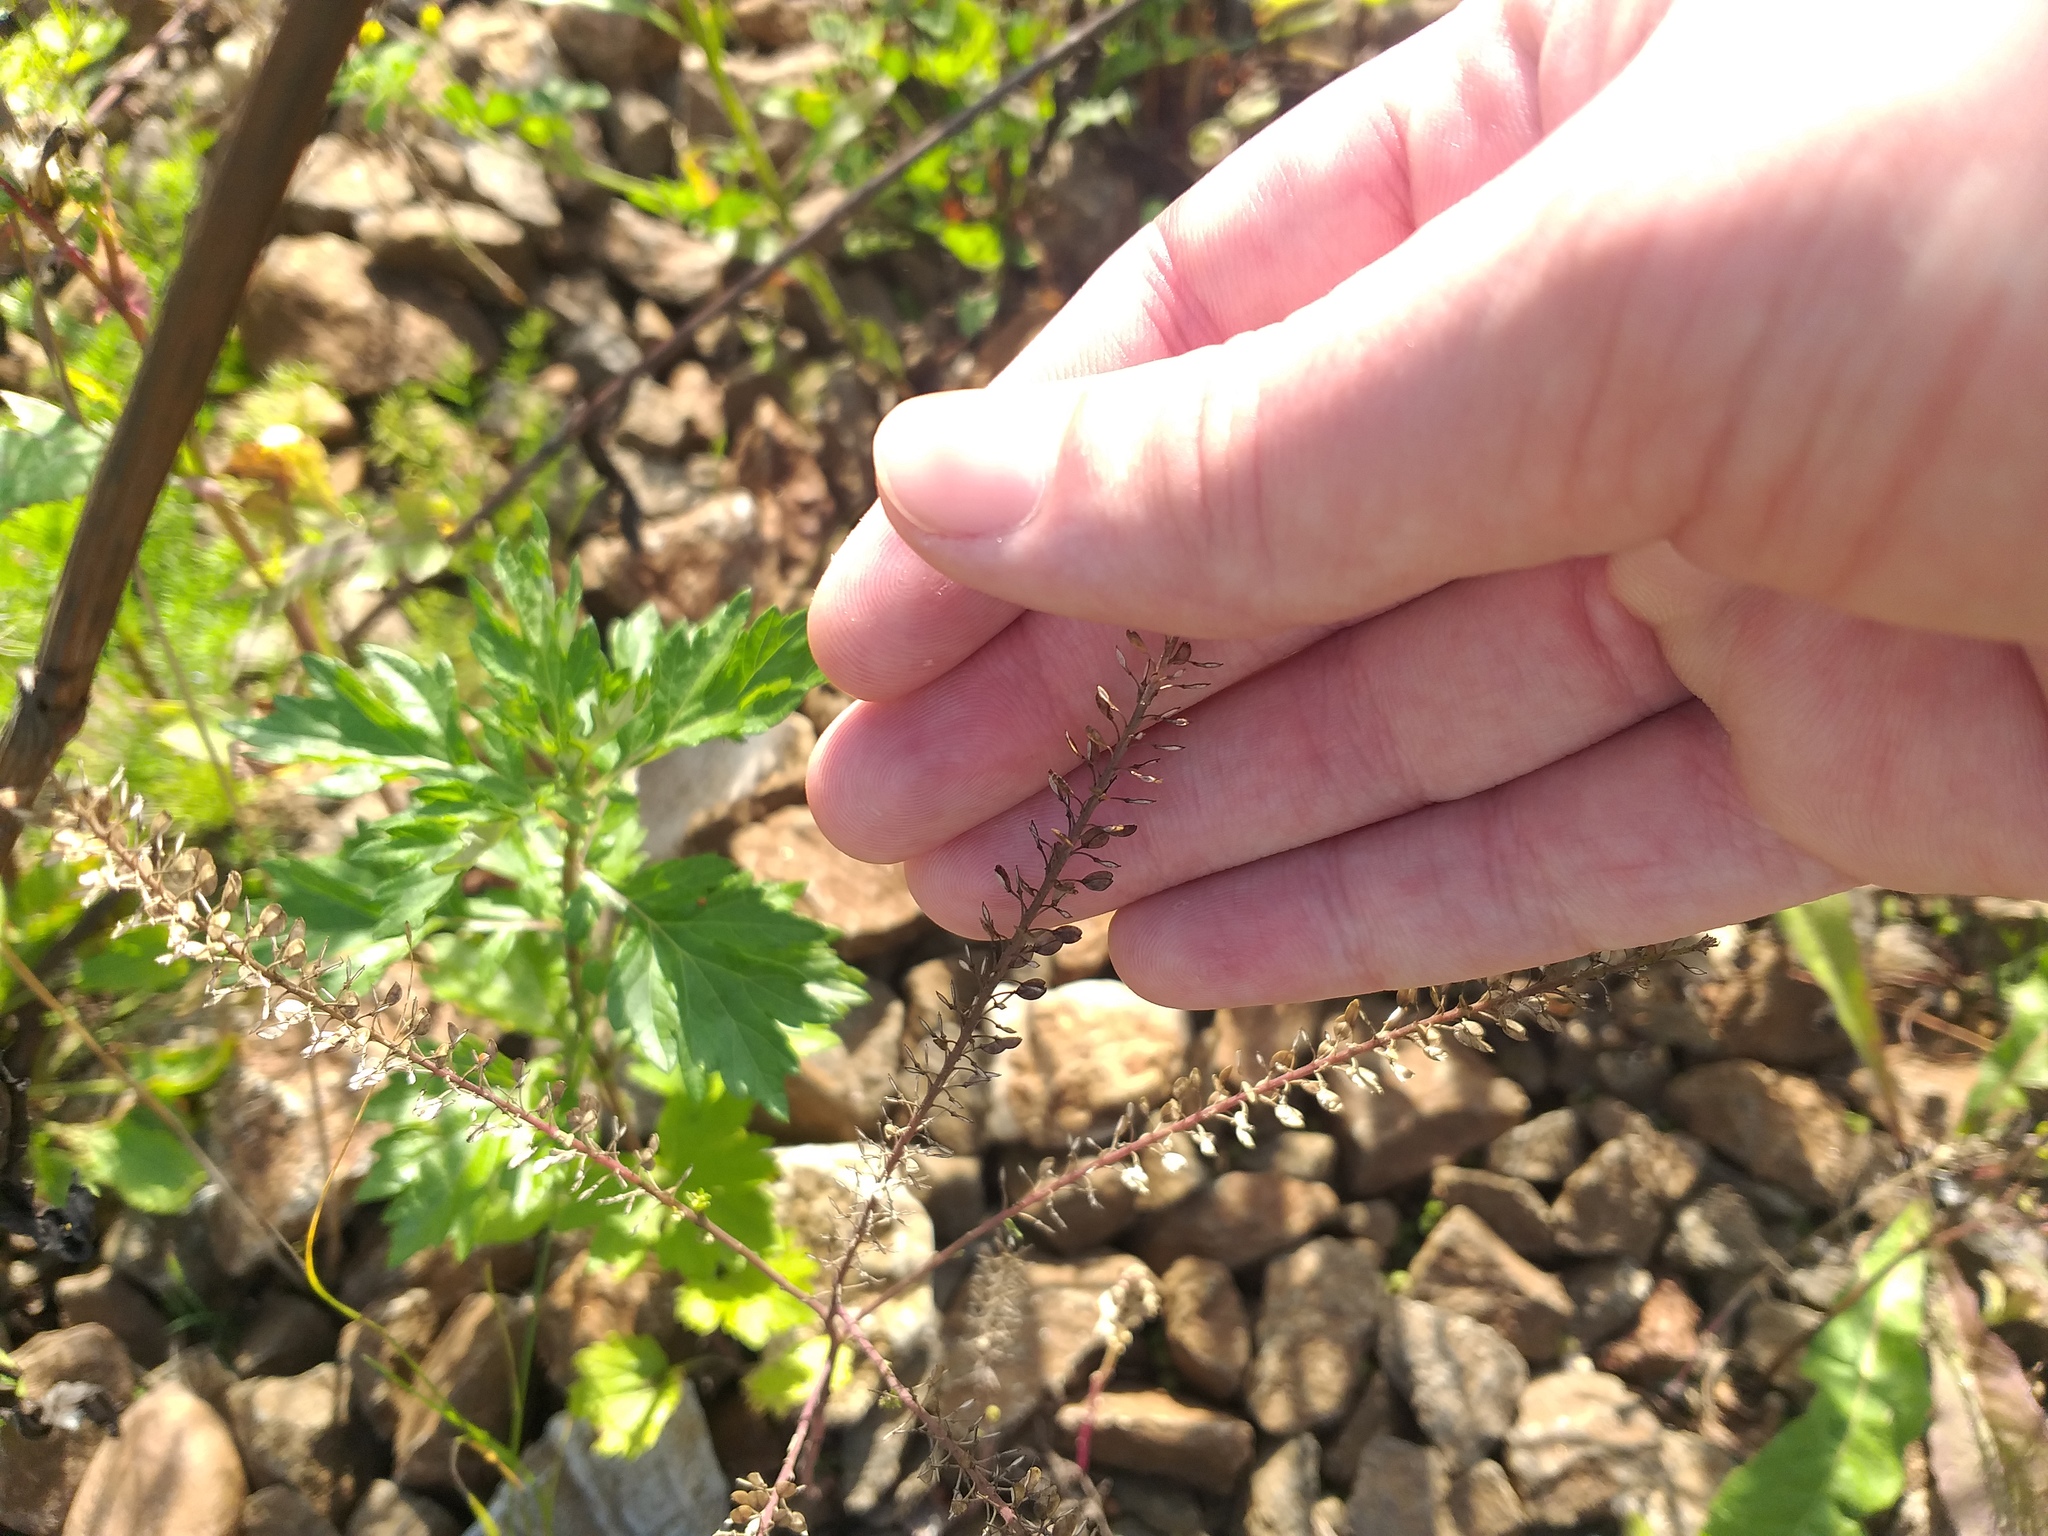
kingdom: Plantae
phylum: Tracheophyta
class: Magnoliopsida
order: Brassicales
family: Brassicaceae
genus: Lepidium
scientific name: Lepidium densiflorum
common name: Miner's pepperwort
